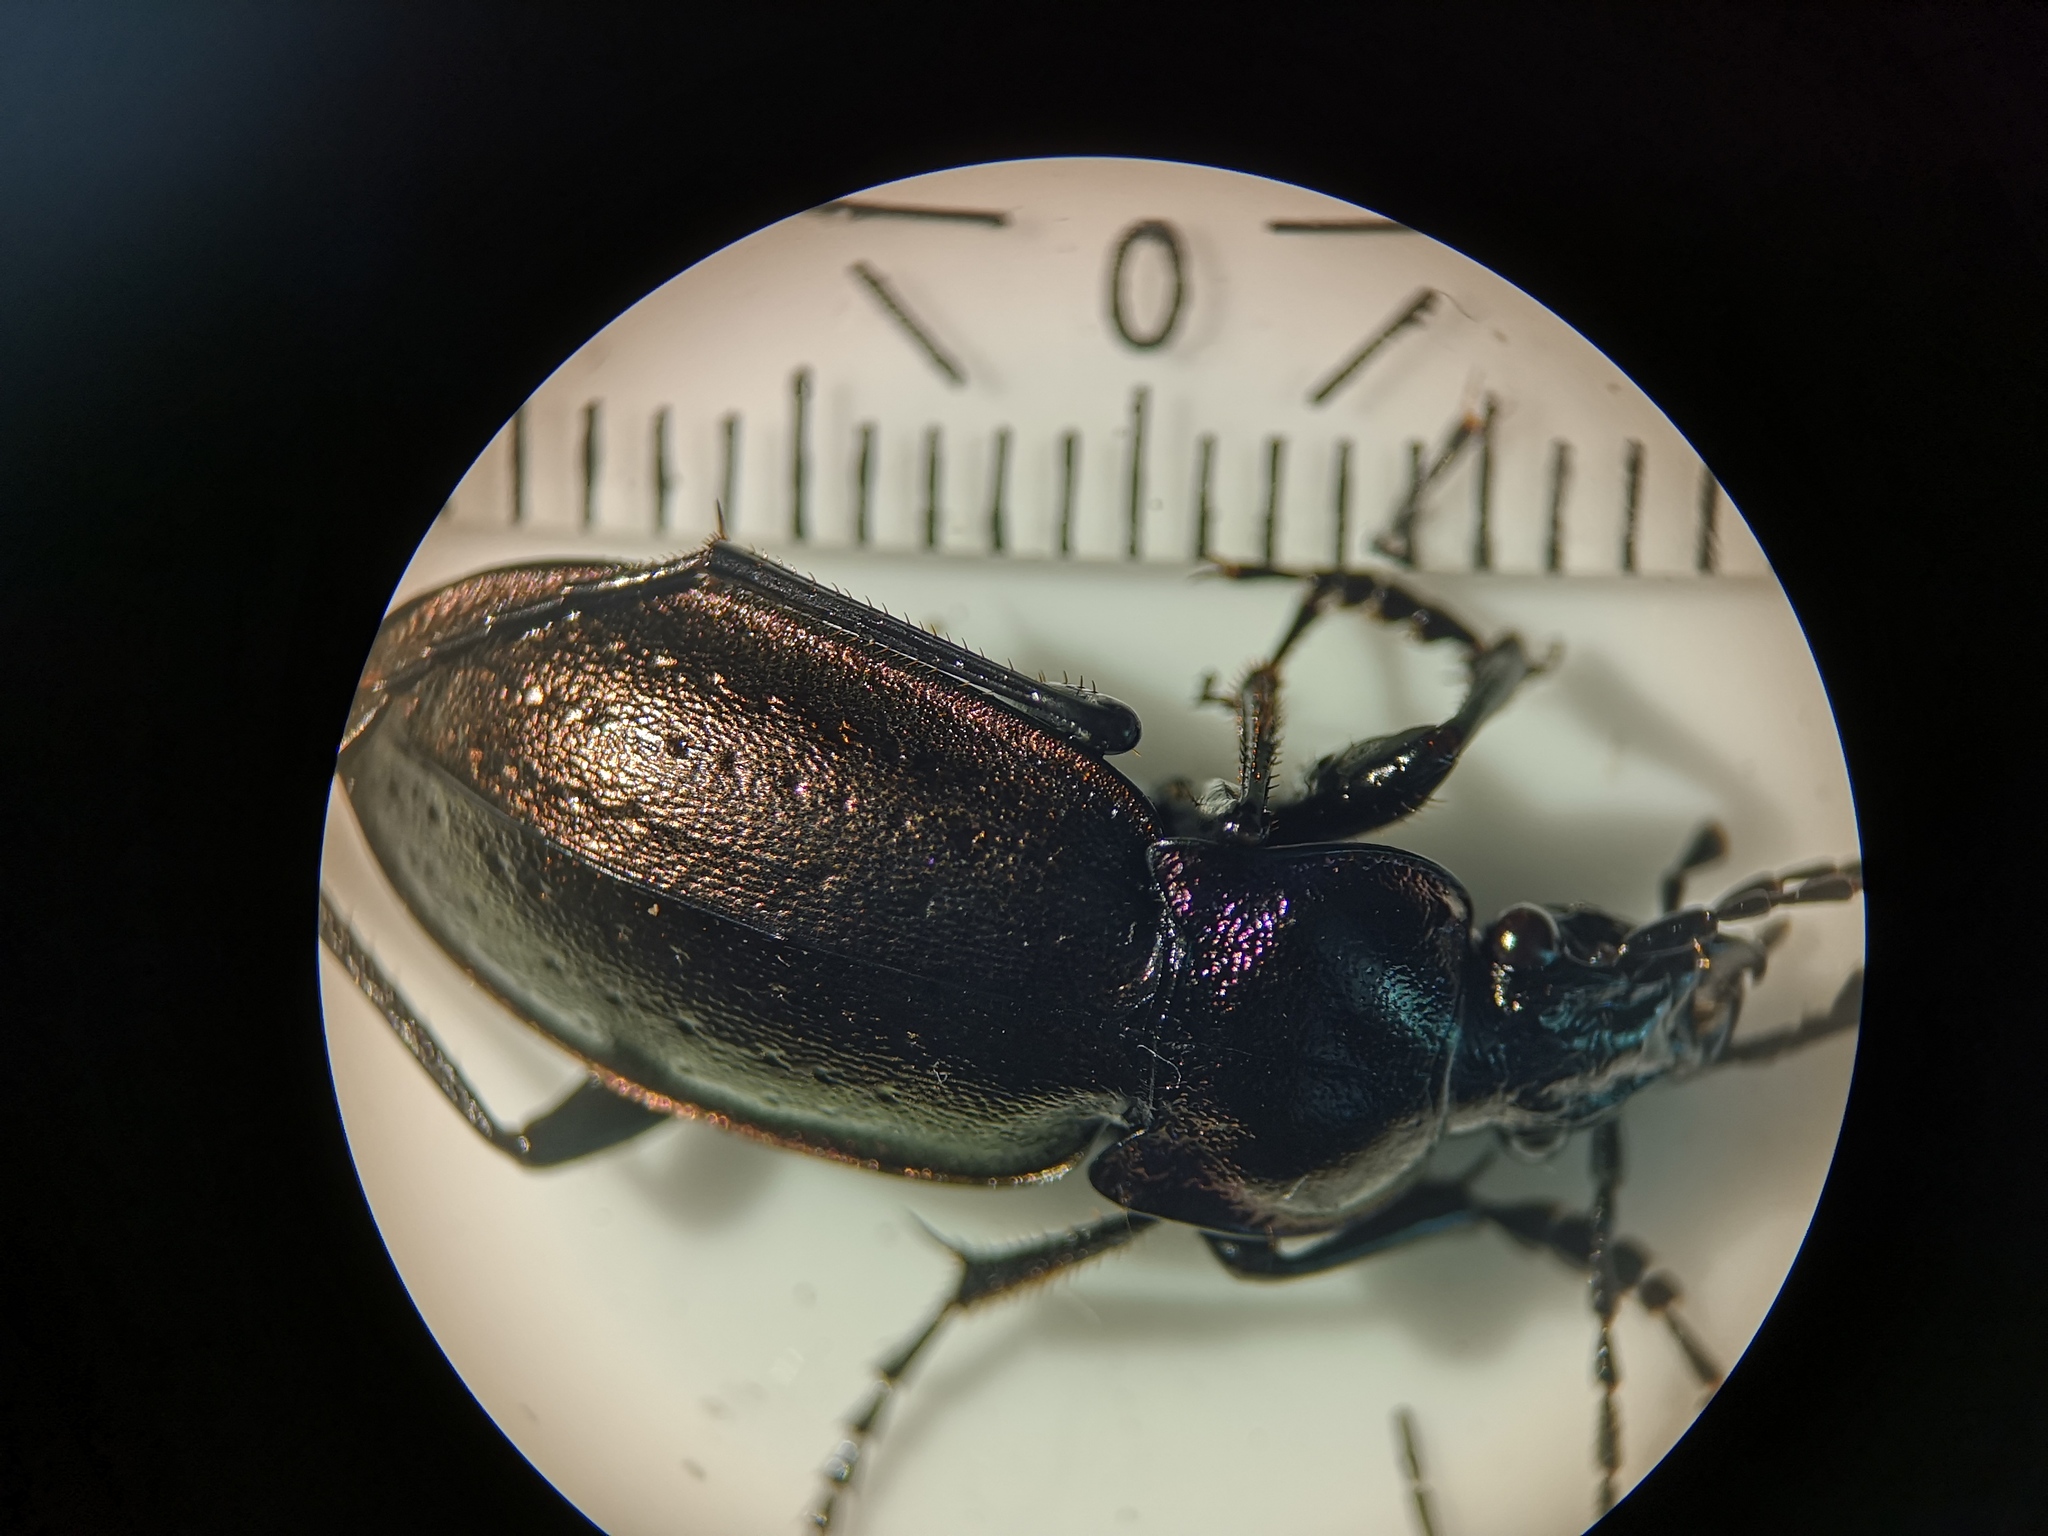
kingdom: Animalia
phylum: Arthropoda
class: Insecta
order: Coleoptera
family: Carabidae
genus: Carabus
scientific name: Carabus nemoralis
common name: European ground beetle
